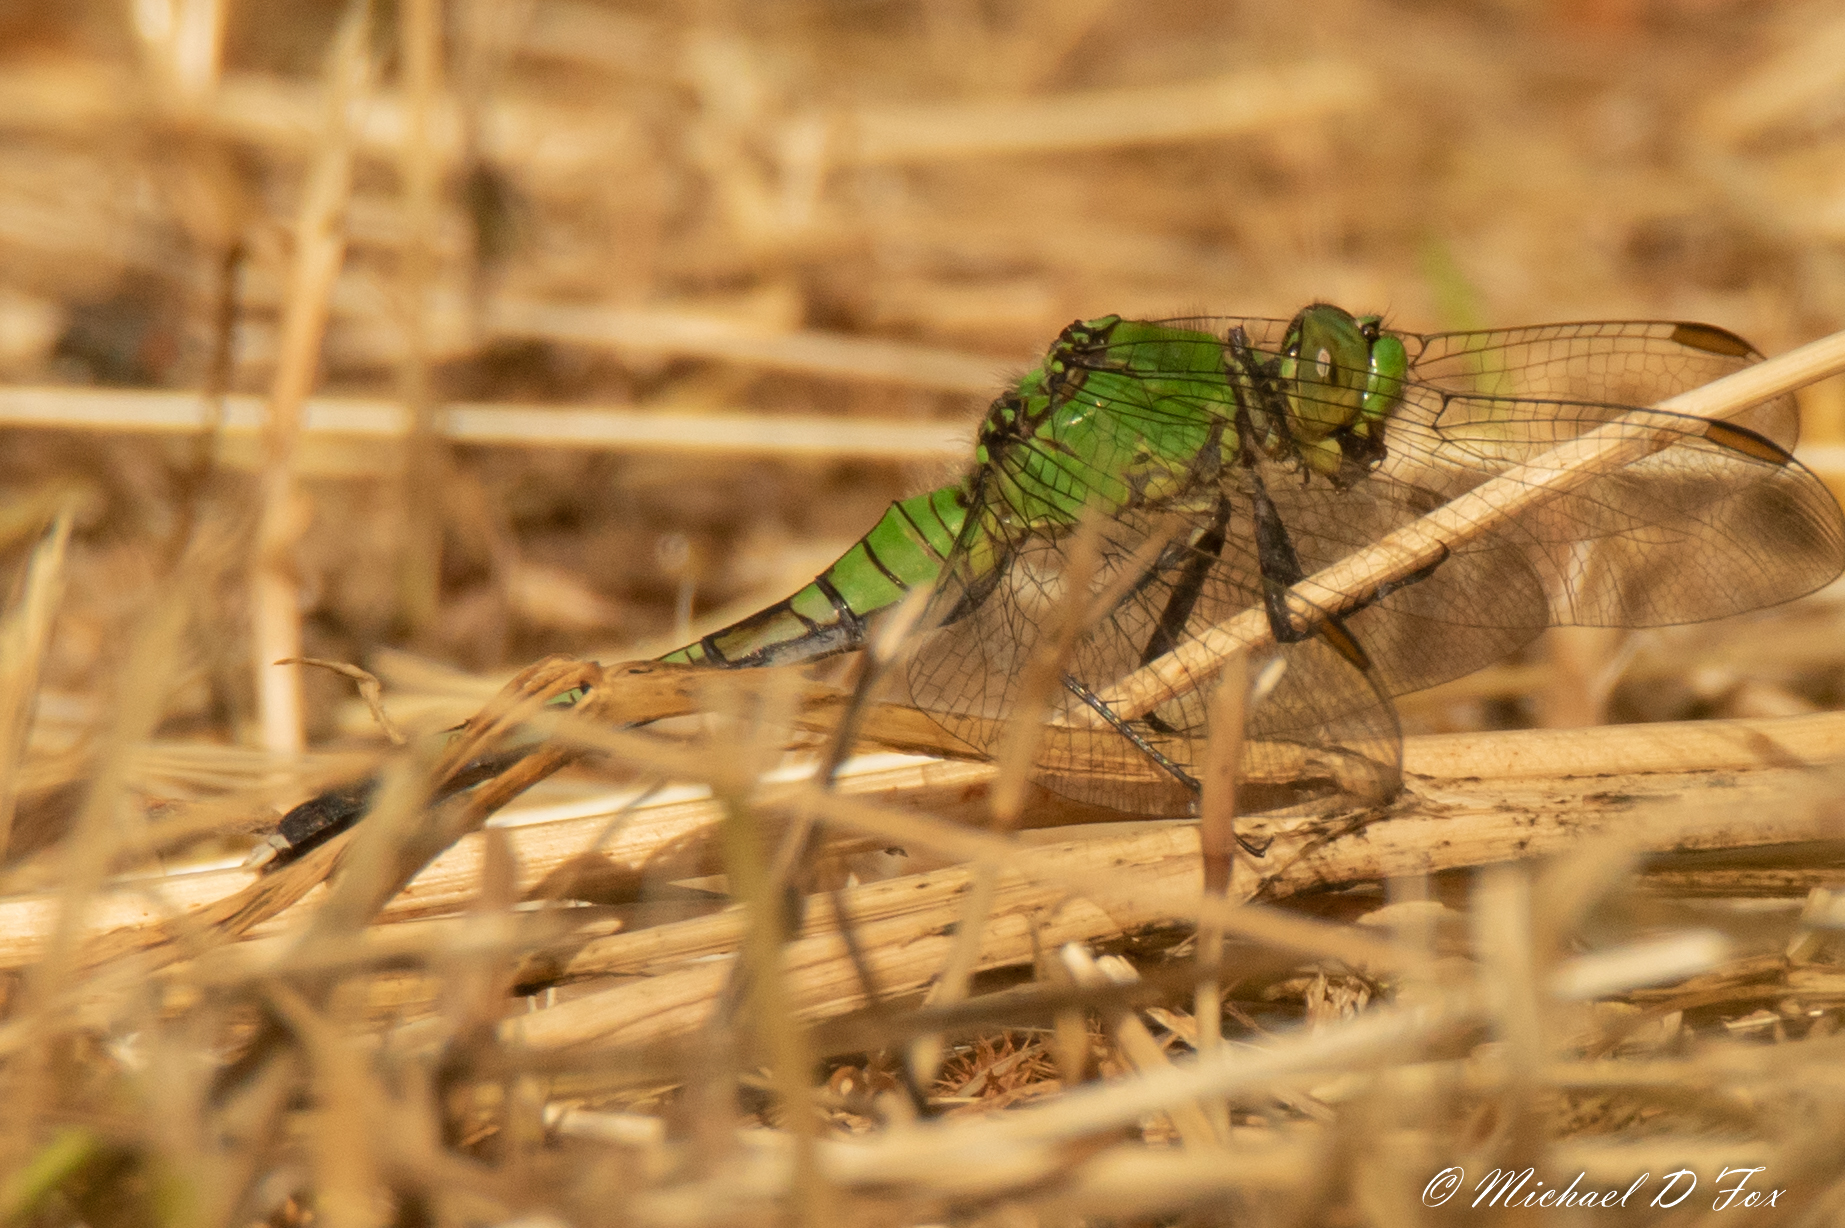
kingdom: Animalia
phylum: Arthropoda
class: Insecta
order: Odonata
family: Libellulidae
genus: Erythemis
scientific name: Erythemis simplicicollis
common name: Eastern pondhawk
